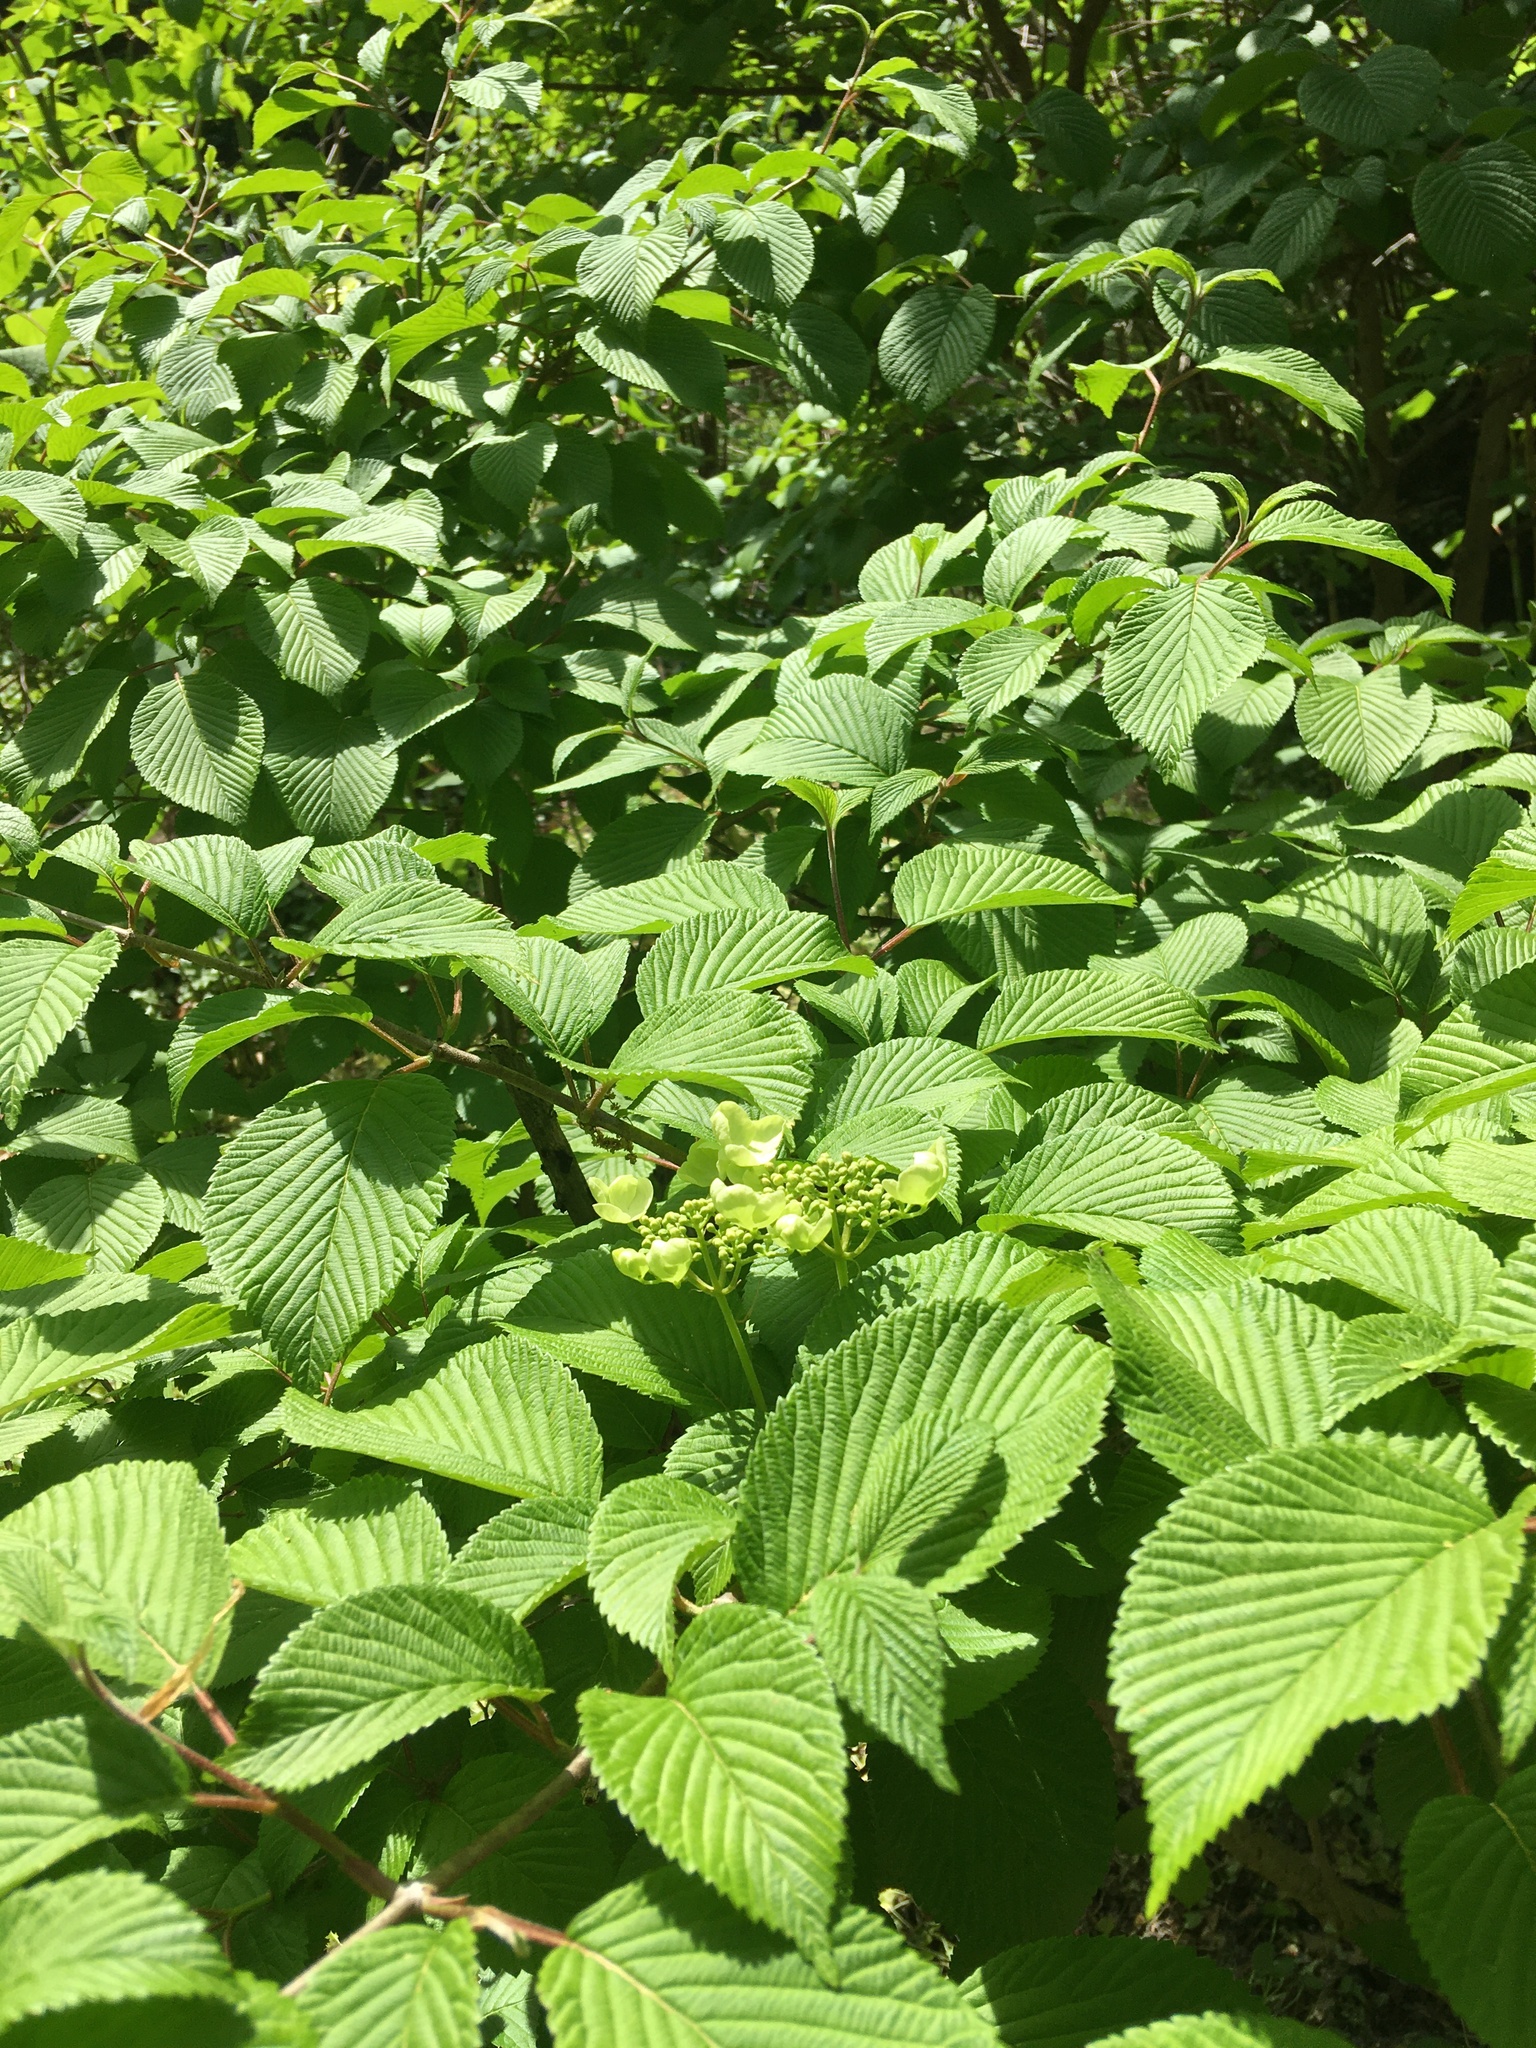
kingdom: Plantae
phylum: Tracheophyta
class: Magnoliopsida
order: Dipsacales
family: Viburnaceae
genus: Viburnum
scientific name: Viburnum plicatum
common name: Japanese snowball
